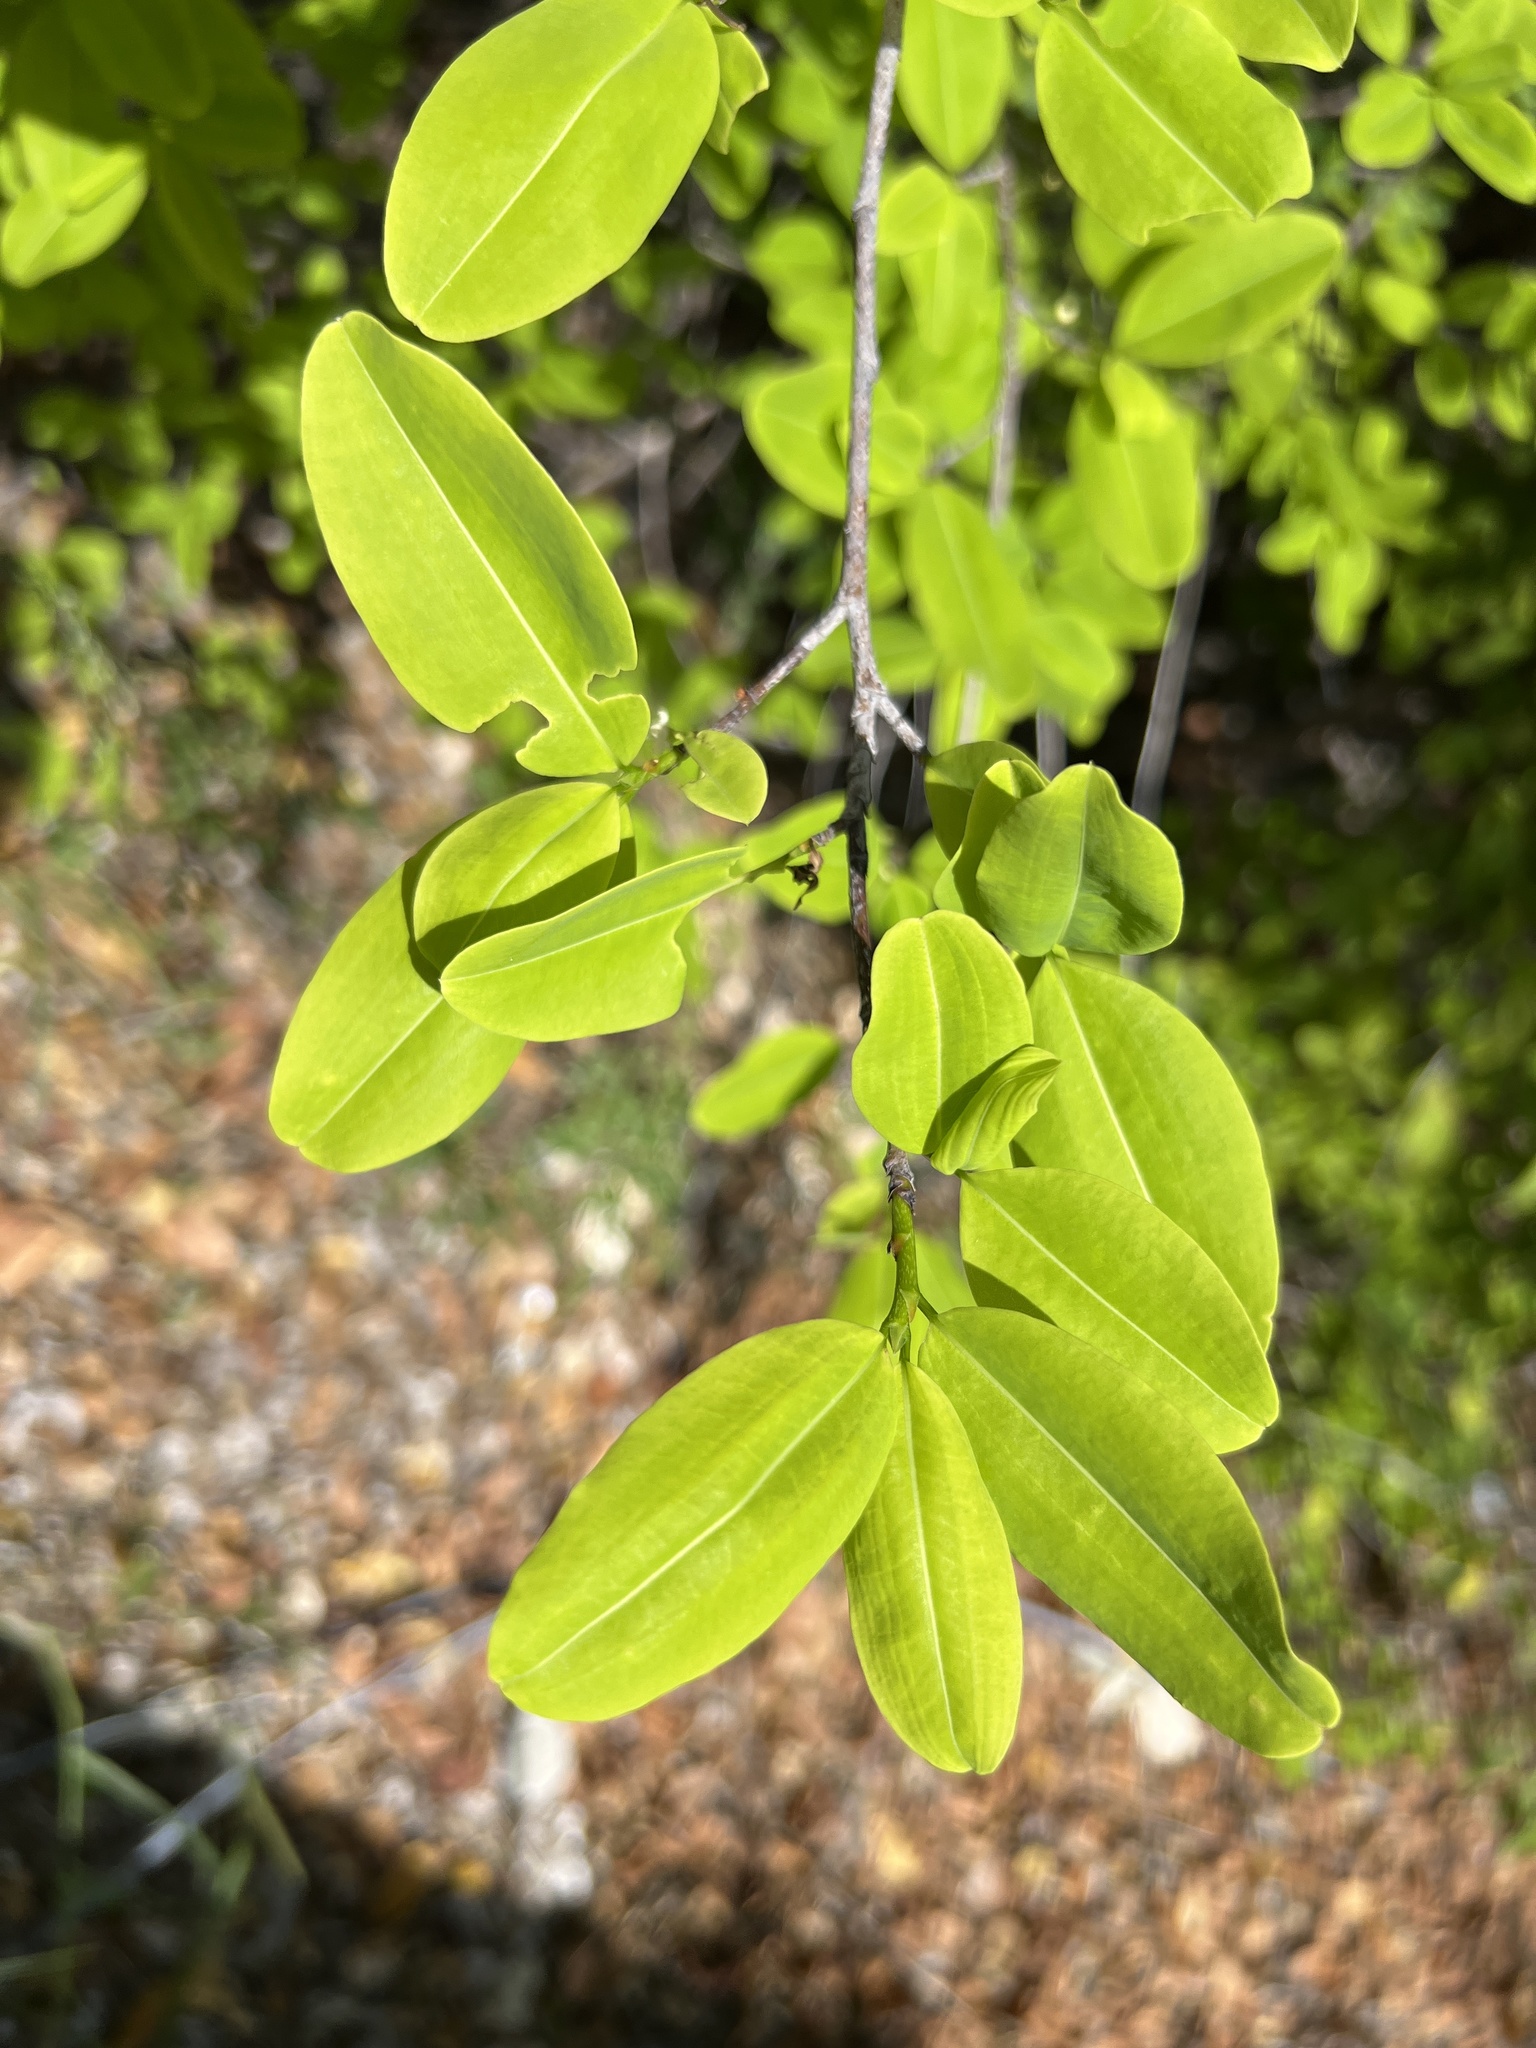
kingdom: Plantae
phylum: Tracheophyta
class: Magnoliopsida
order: Malpighiales
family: Erythroxylaceae
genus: Erythroxylum
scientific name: Erythroxylum areolatum
